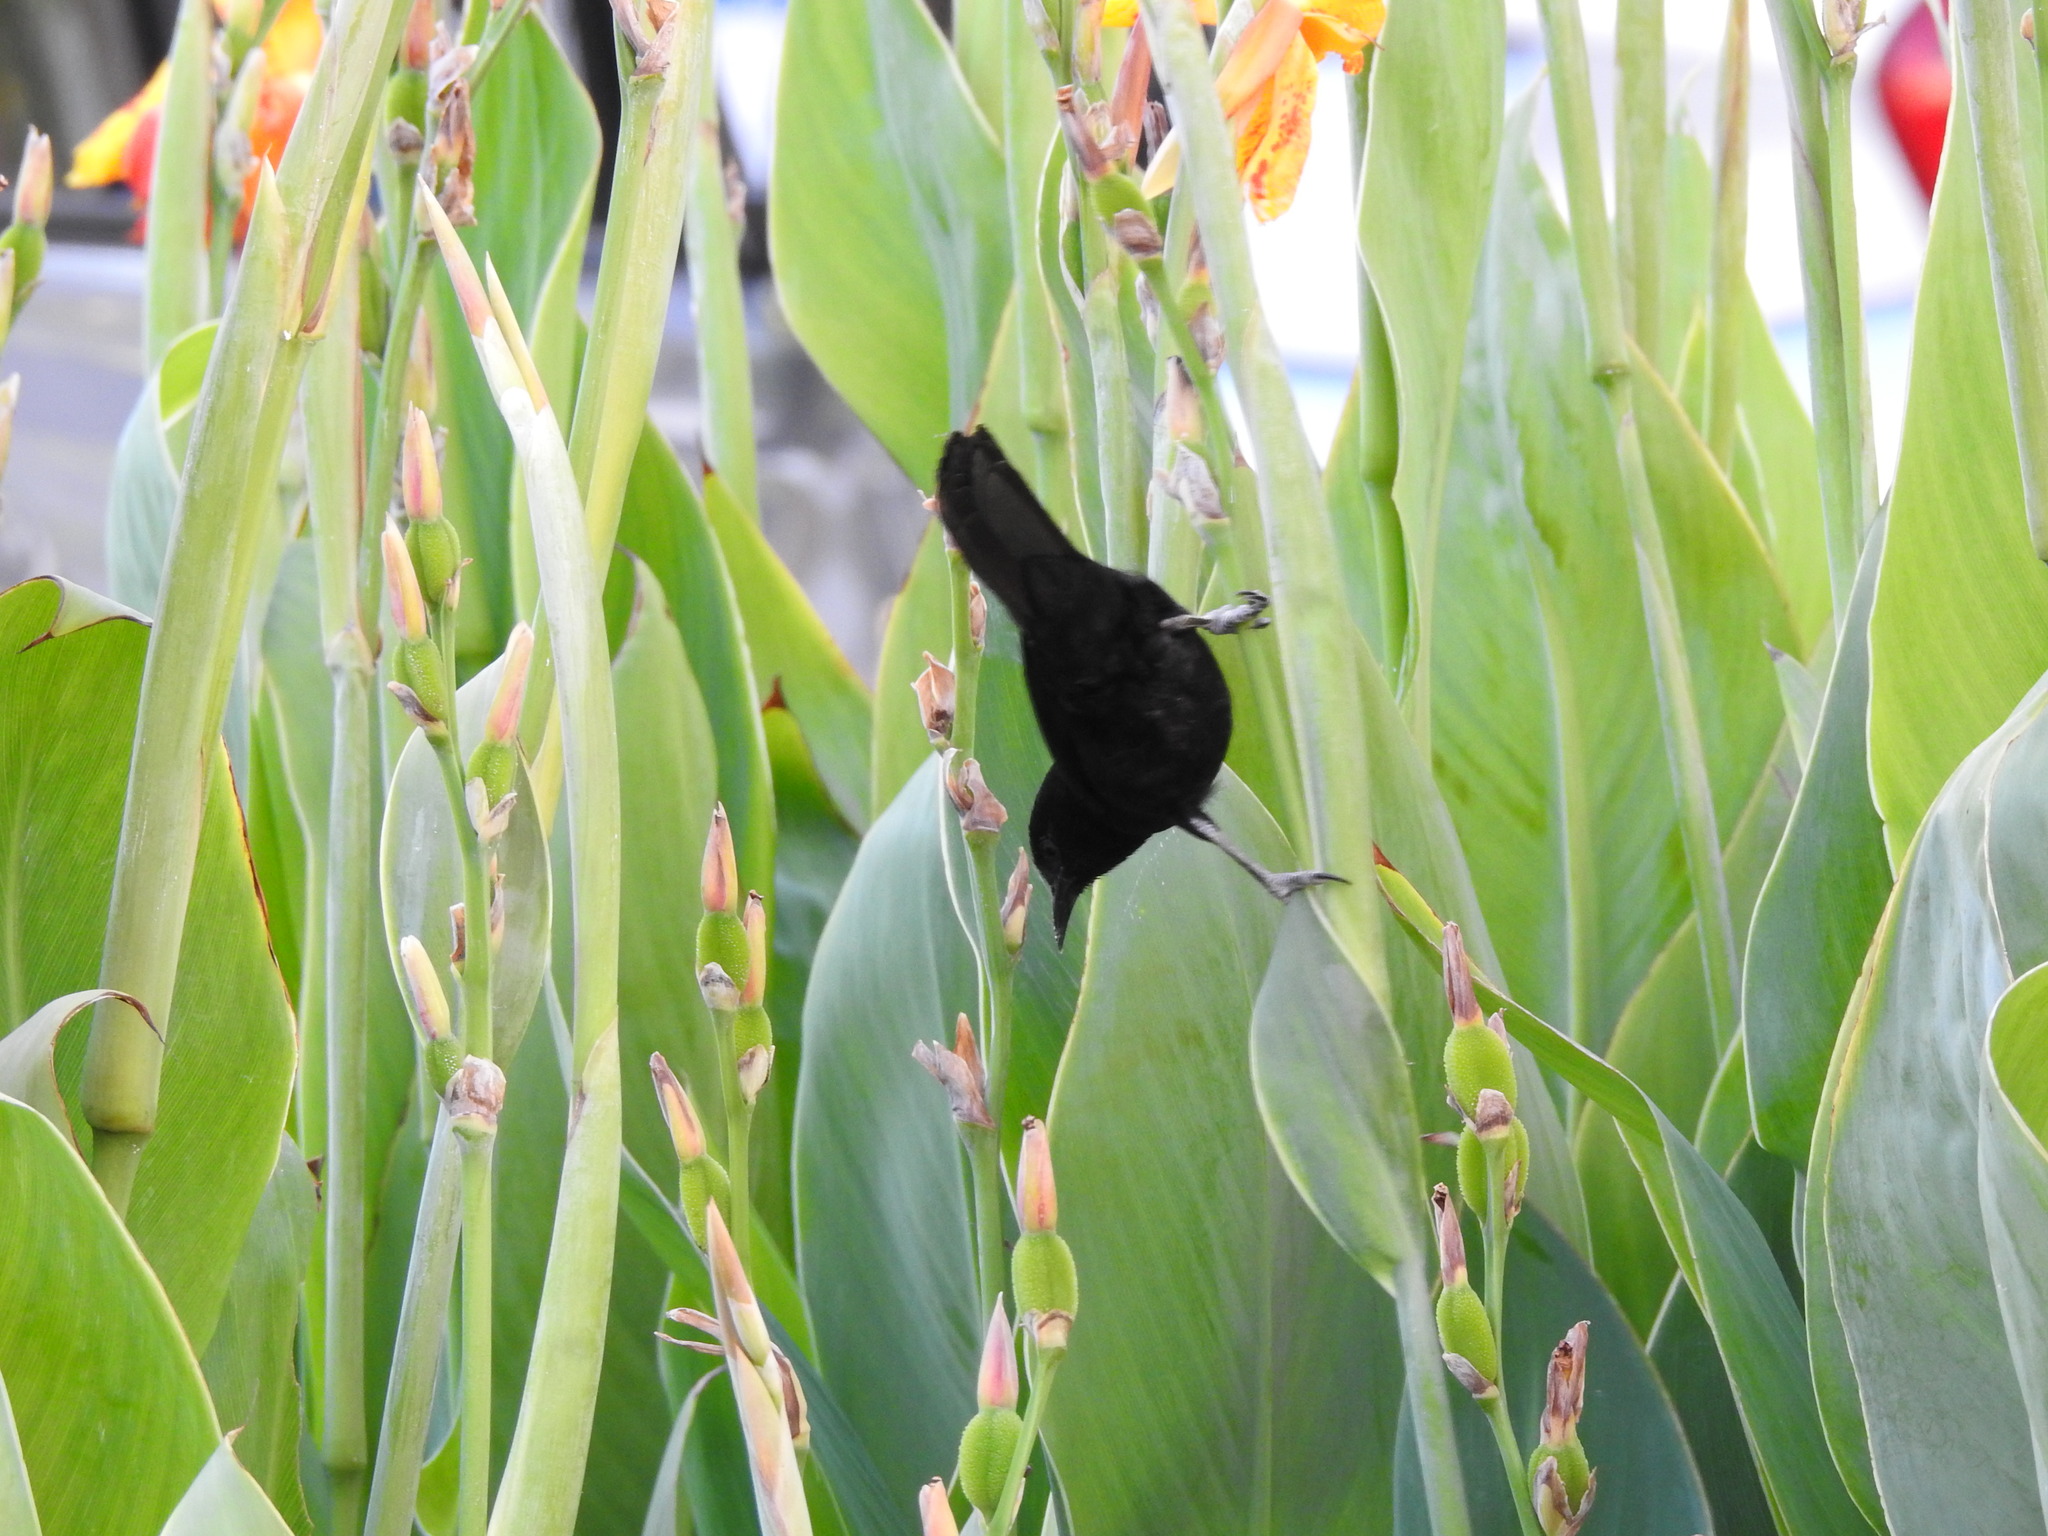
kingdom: Animalia
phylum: Chordata
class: Aves
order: Passeriformes
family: Icteridae
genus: Icterus
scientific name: Icterus cayanensis
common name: Epaulet oriole
